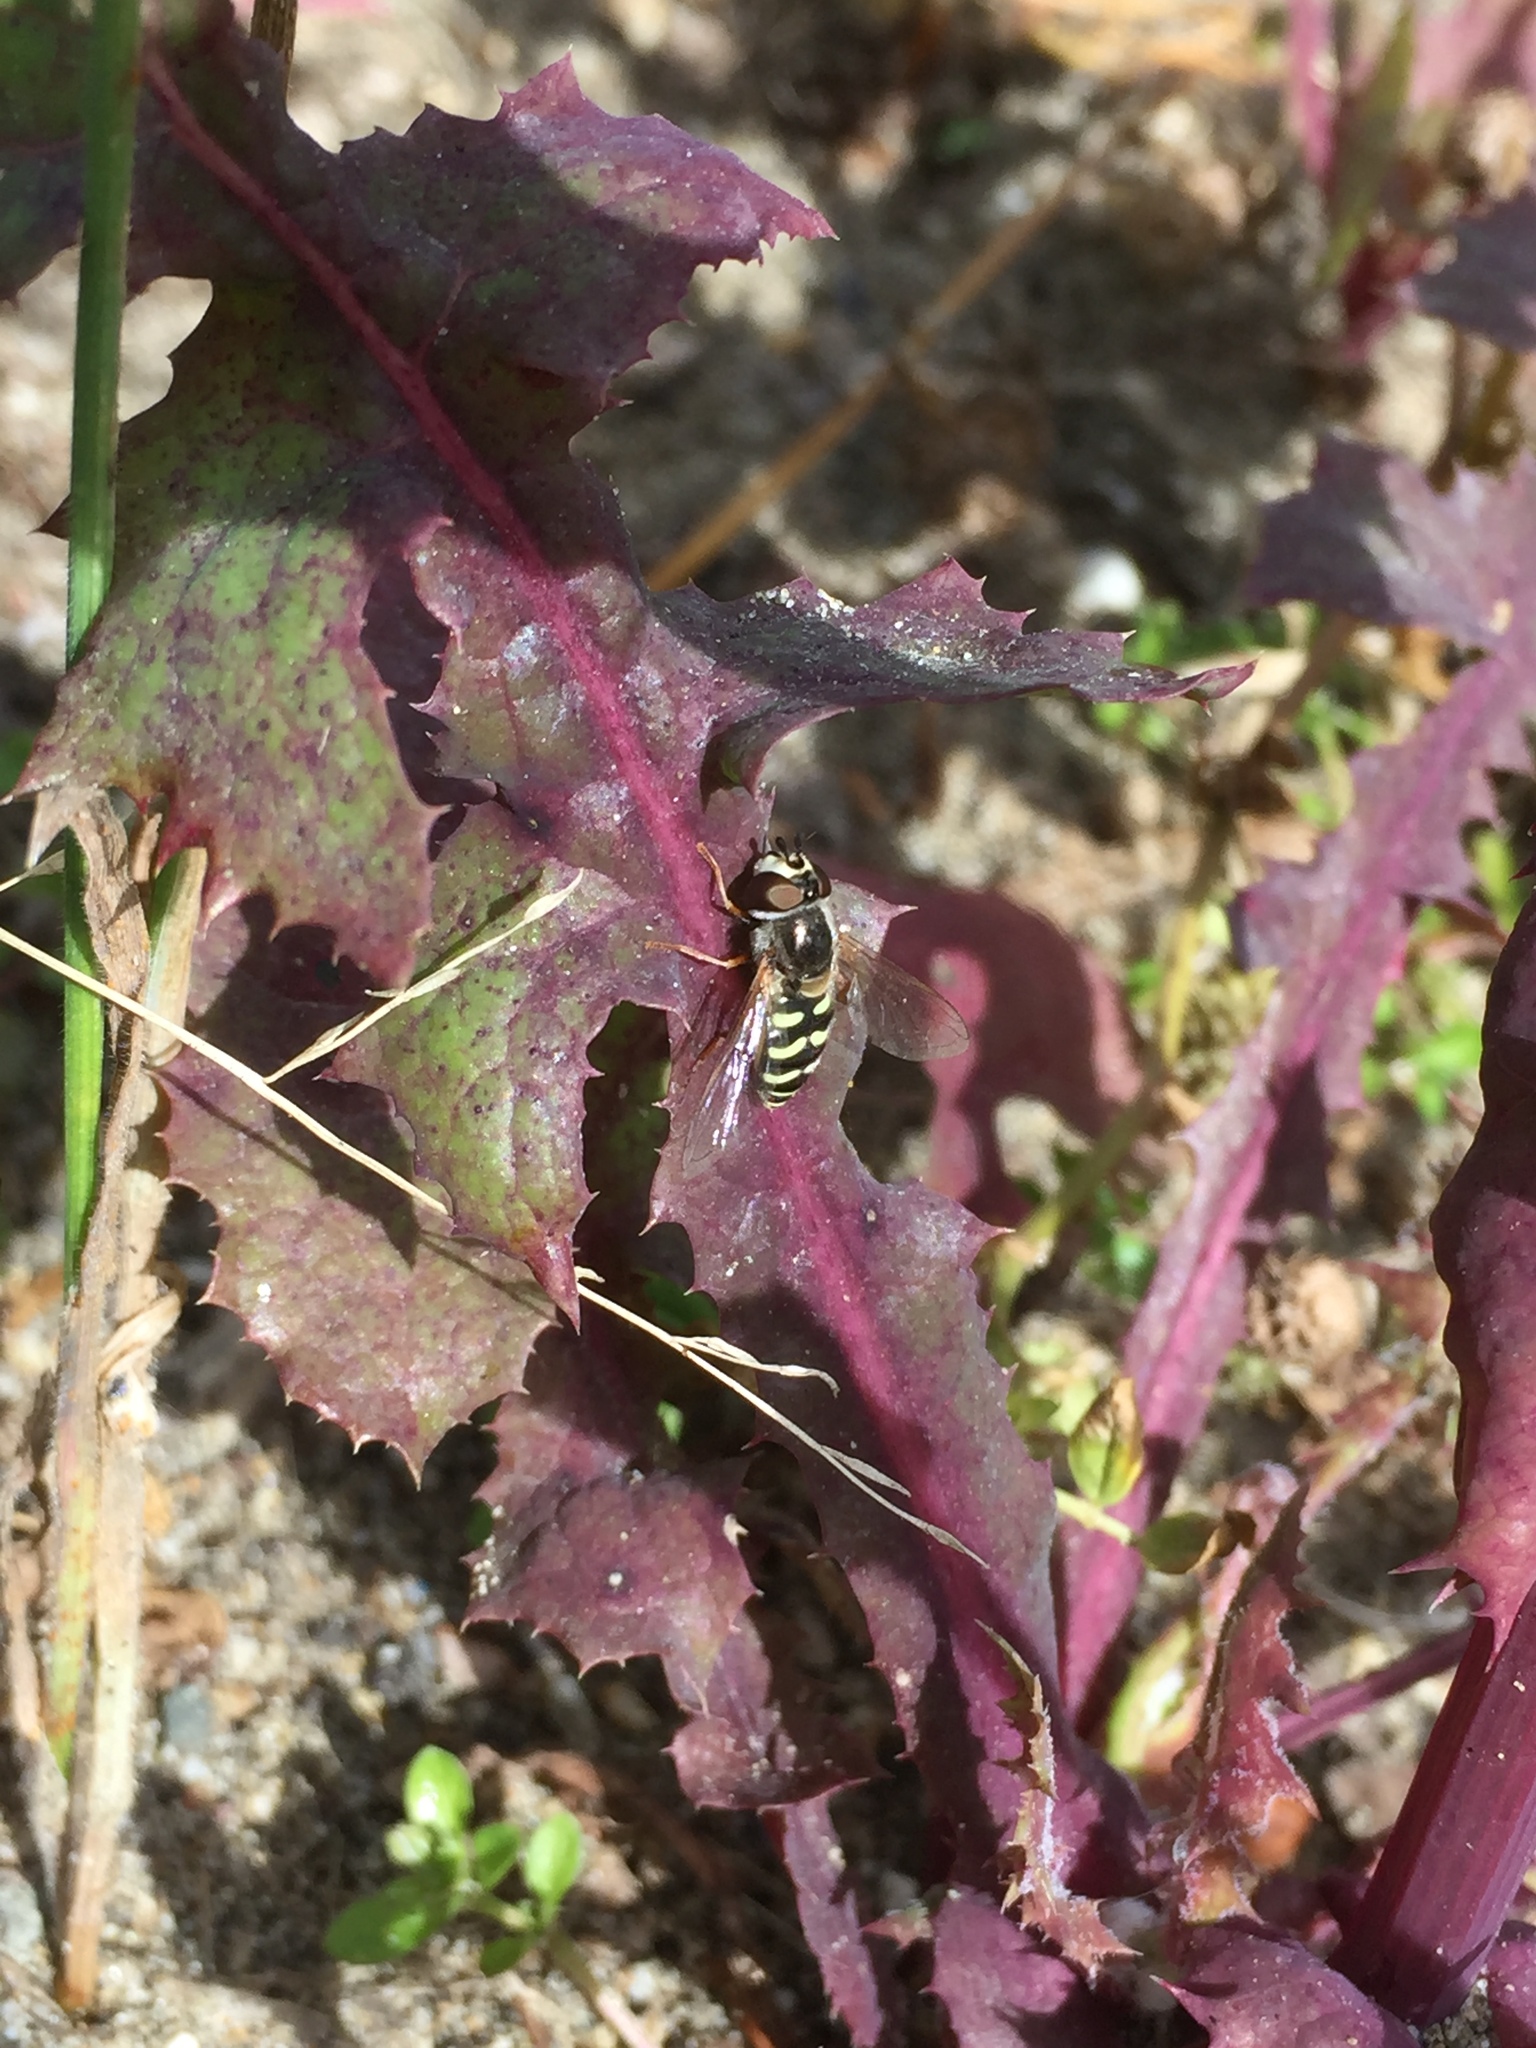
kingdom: Animalia
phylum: Arthropoda
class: Insecta
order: Diptera
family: Syrphidae
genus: Eupeodes
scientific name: Eupeodes volucris
